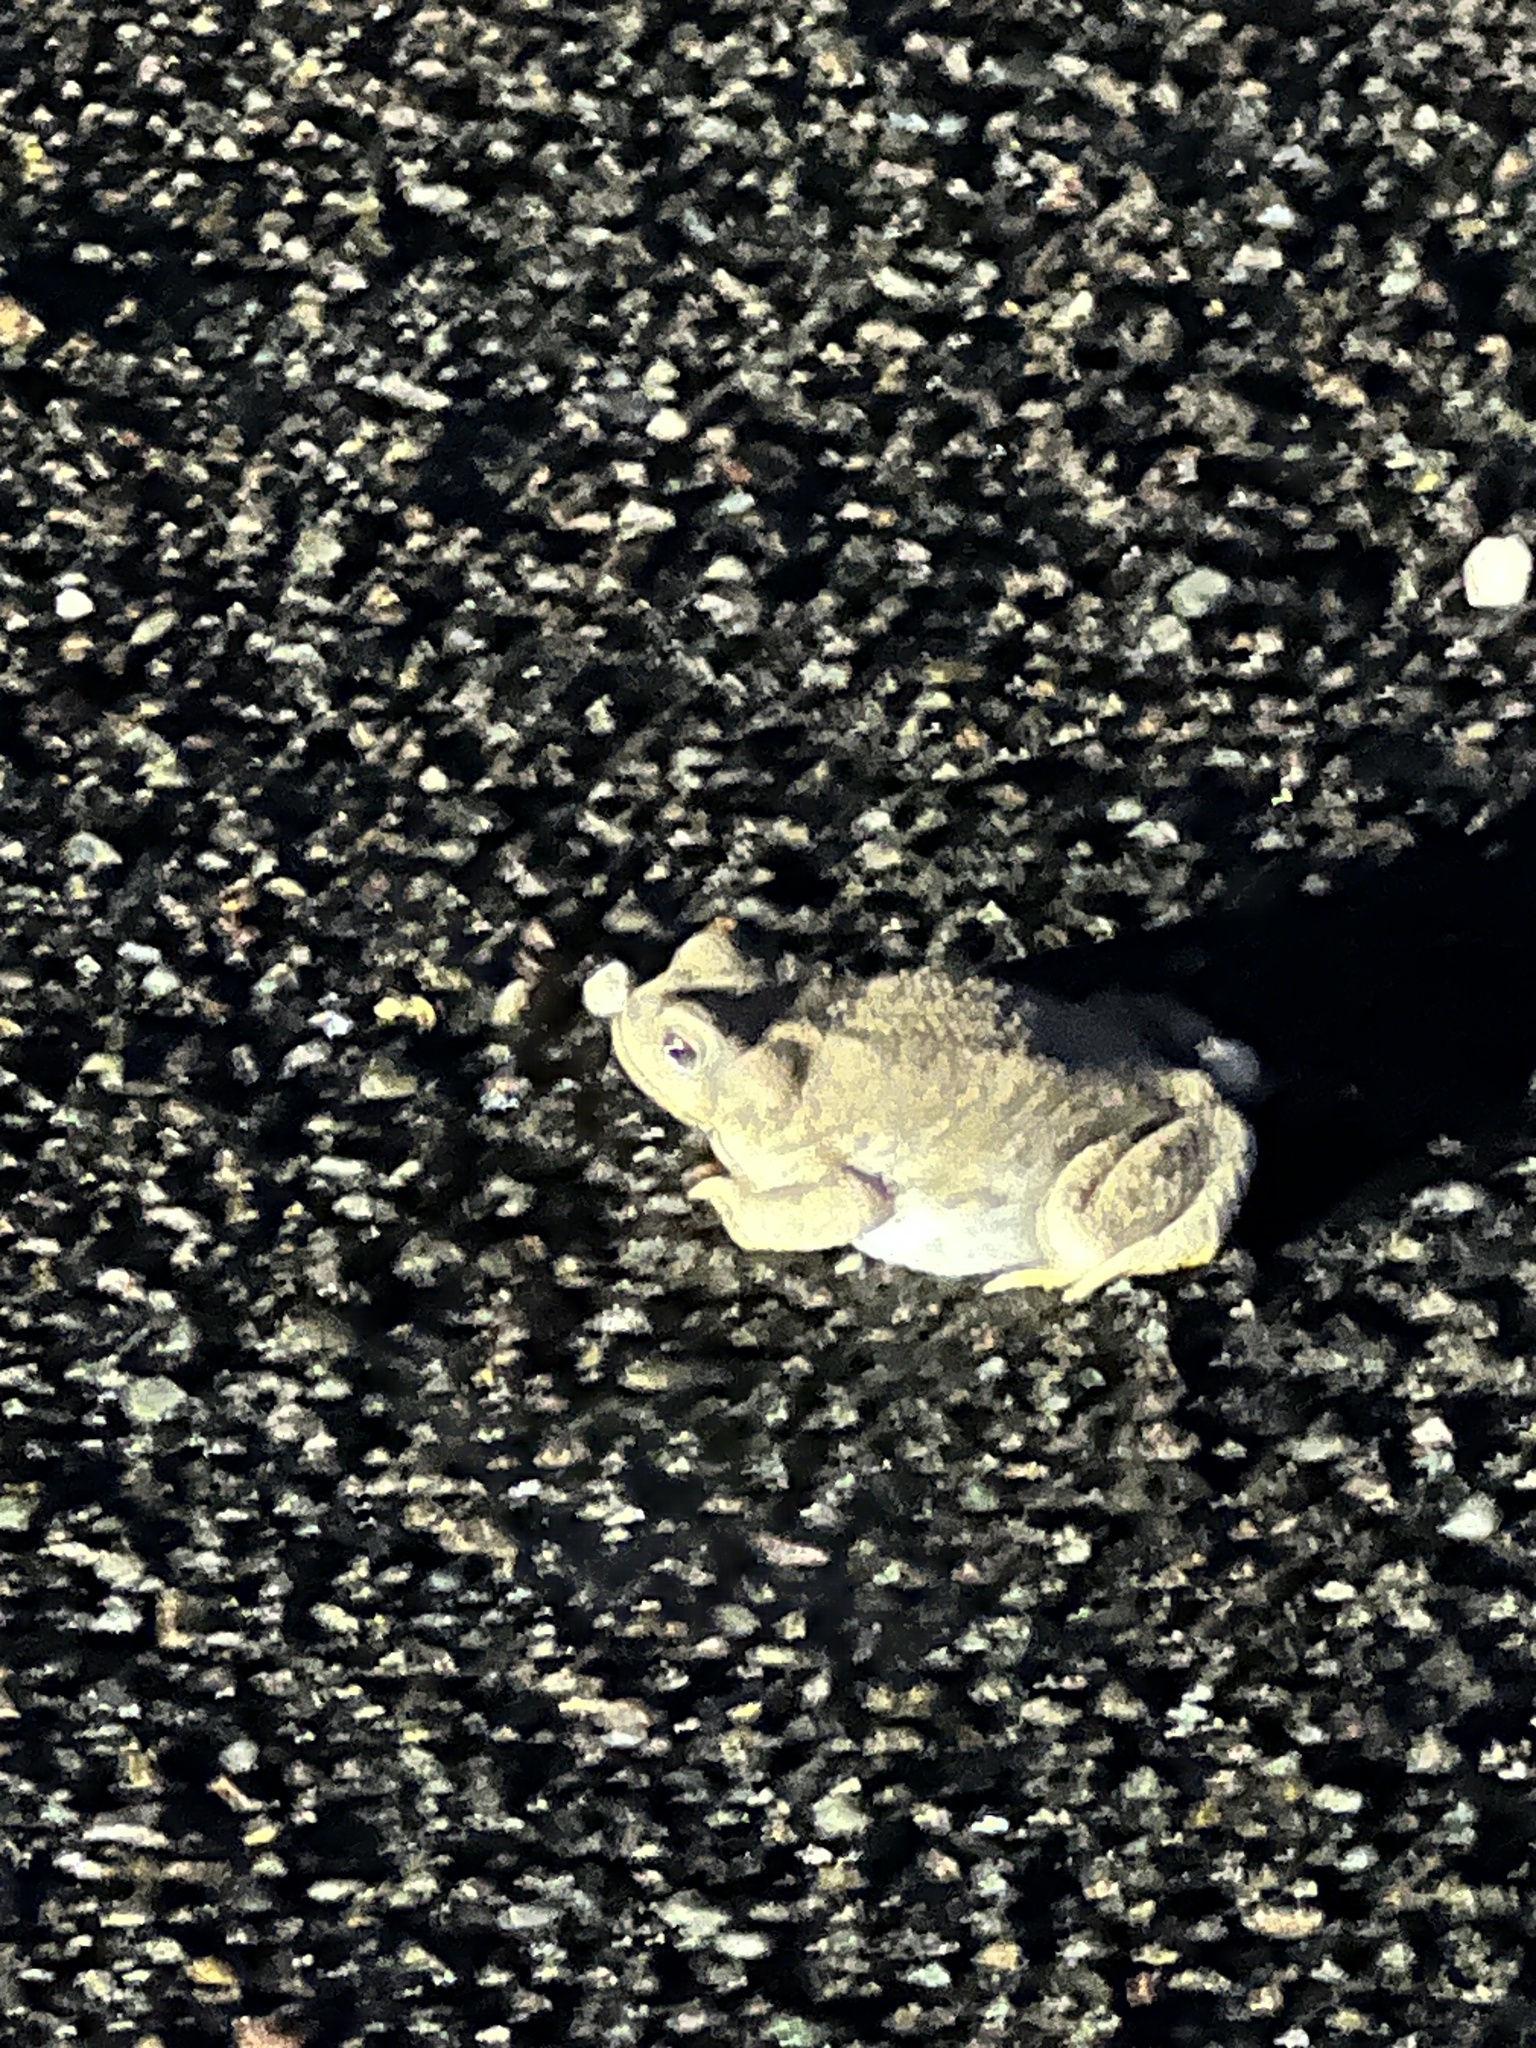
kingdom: Animalia
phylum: Chordata
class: Amphibia
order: Anura
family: Bufonidae
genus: Anaxyrus
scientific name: Anaxyrus punctatus
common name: Red-spotted toad
